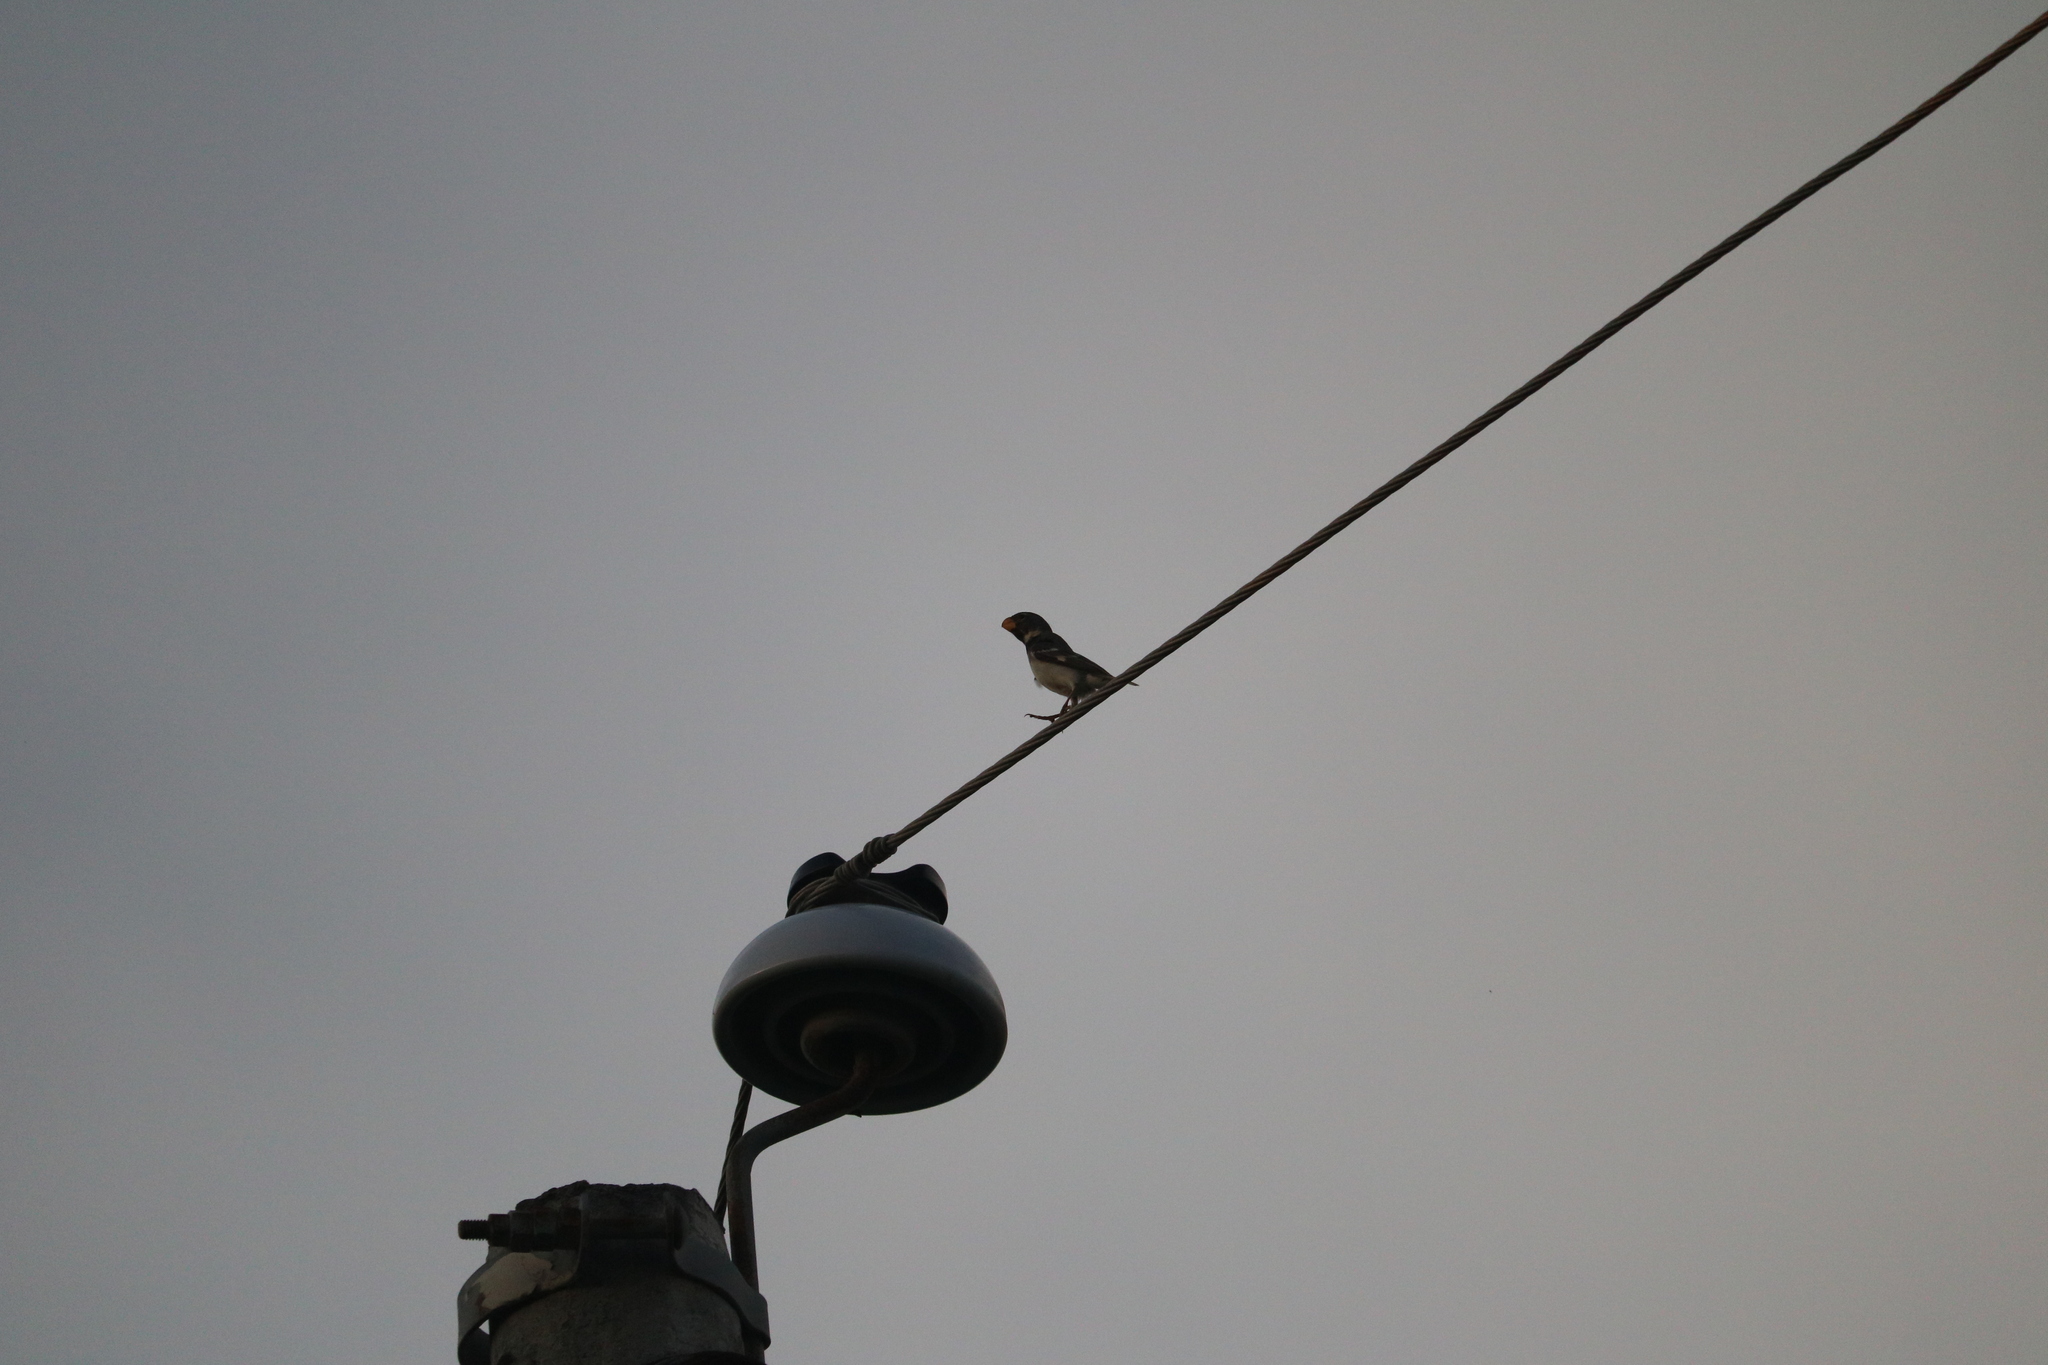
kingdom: Animalia
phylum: Chordata
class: Aves
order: Passeriformes
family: Thraupidae
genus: Sporophila
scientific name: Sporophila peruviana
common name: Parrot-billed seedeater
